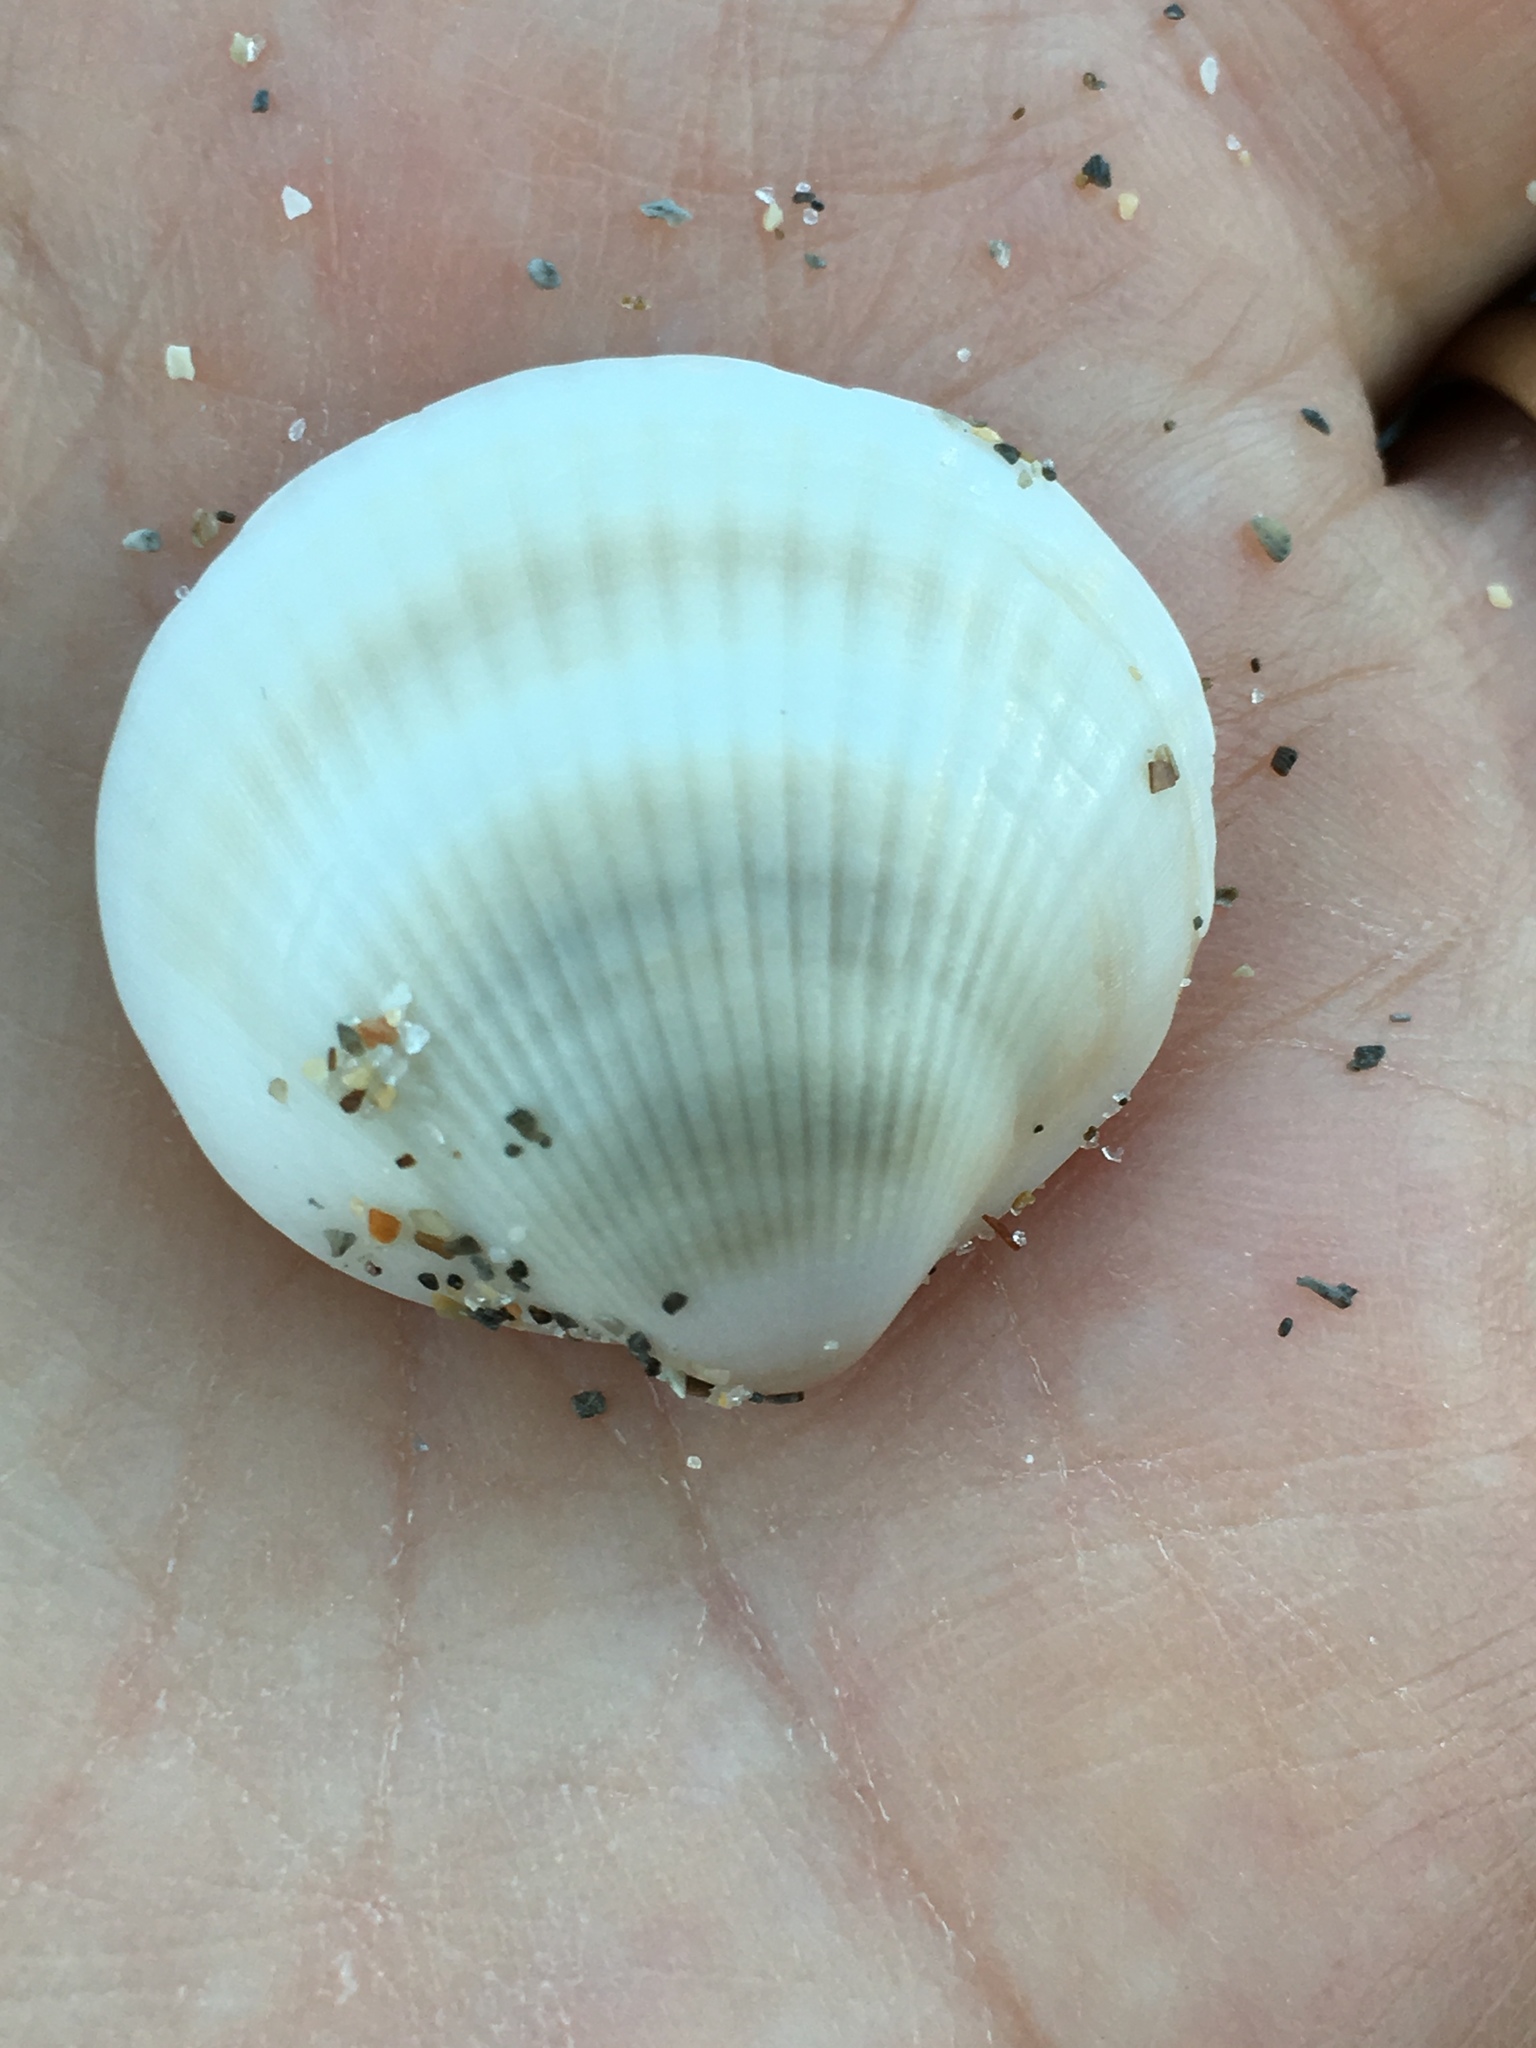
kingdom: Animalia
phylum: Mollusca
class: Bivalvia
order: Arcida
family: Glycymerididae
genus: Glycymeris
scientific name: Glycymeris spectralis
